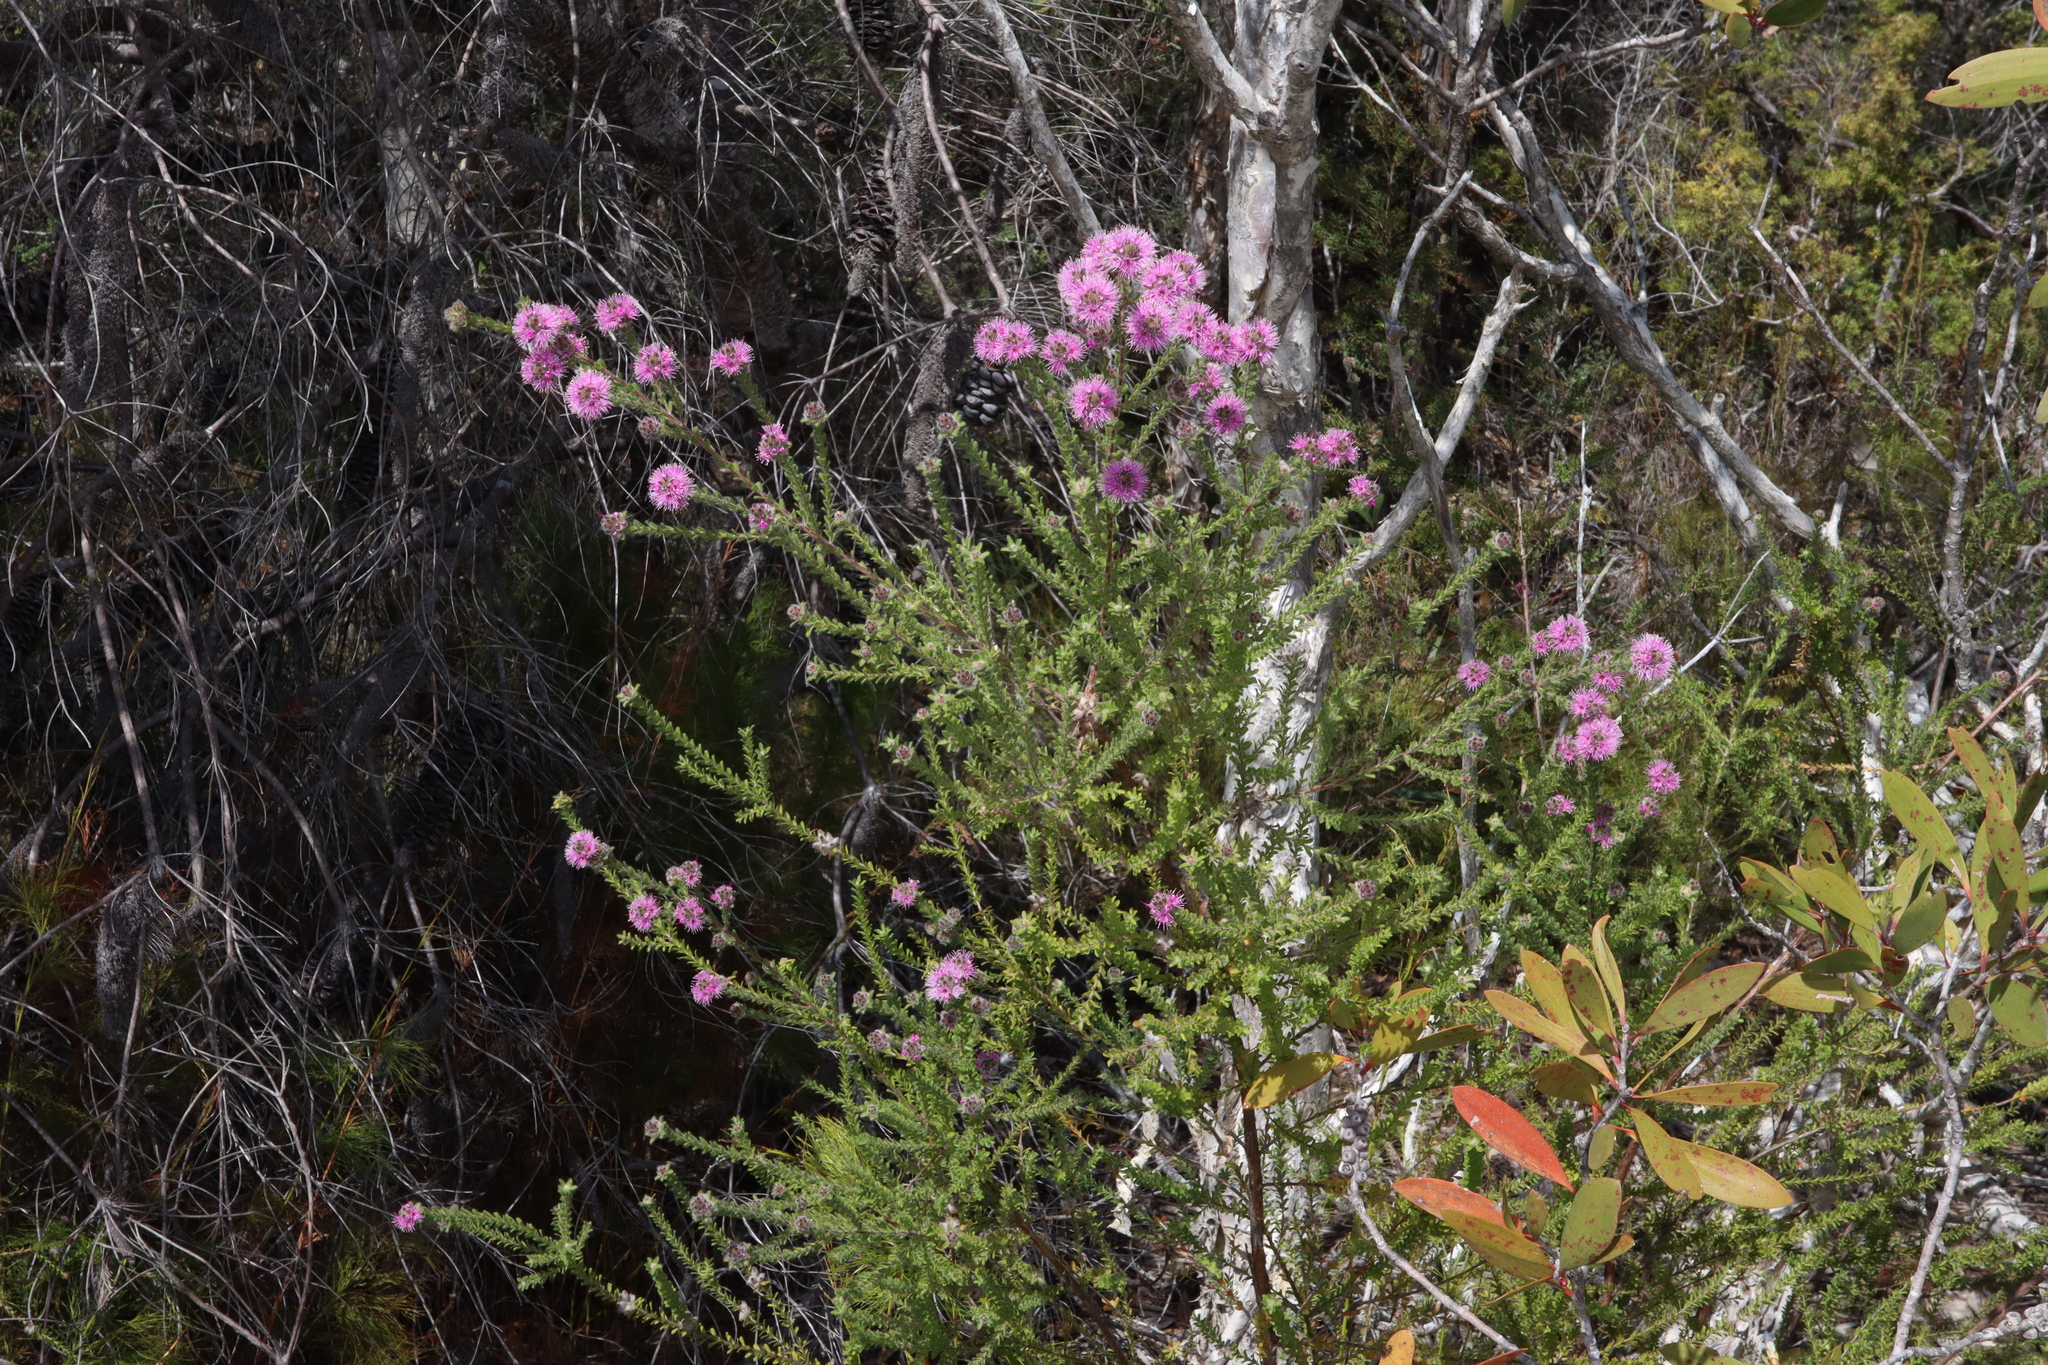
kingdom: Plantae
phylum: Tracheophyta
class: Magnoliopsida
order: Myrtales
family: Myrtaceae
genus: Kunzea
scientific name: Kunzea capitata
